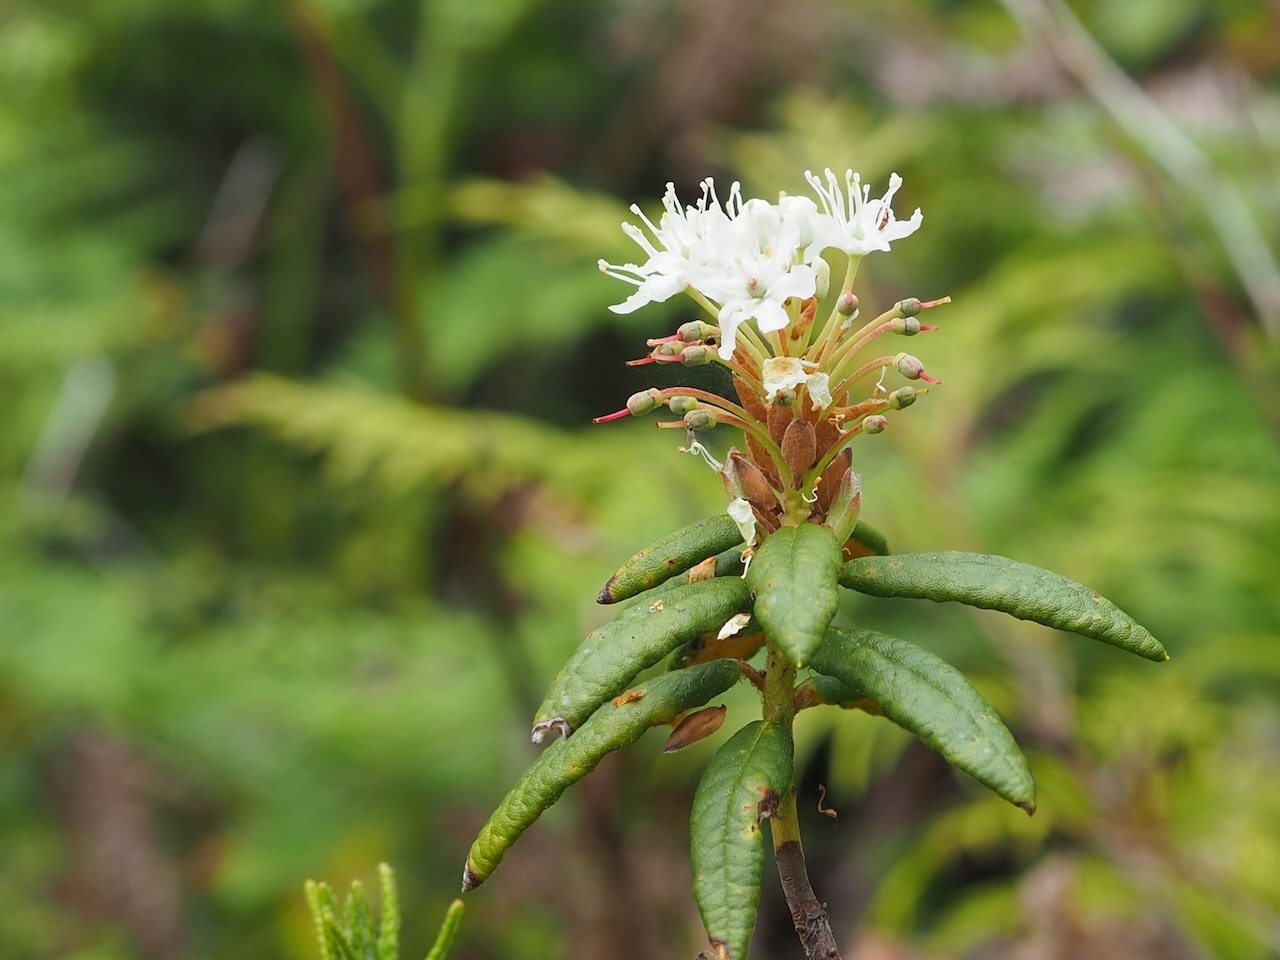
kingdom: Plantae
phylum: Tracheophyta
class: Magnoliopsida
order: Ericales
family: Ericaceae
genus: Rhododendron
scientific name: Rhododendron groenlandicum
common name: Bog labrador tea
